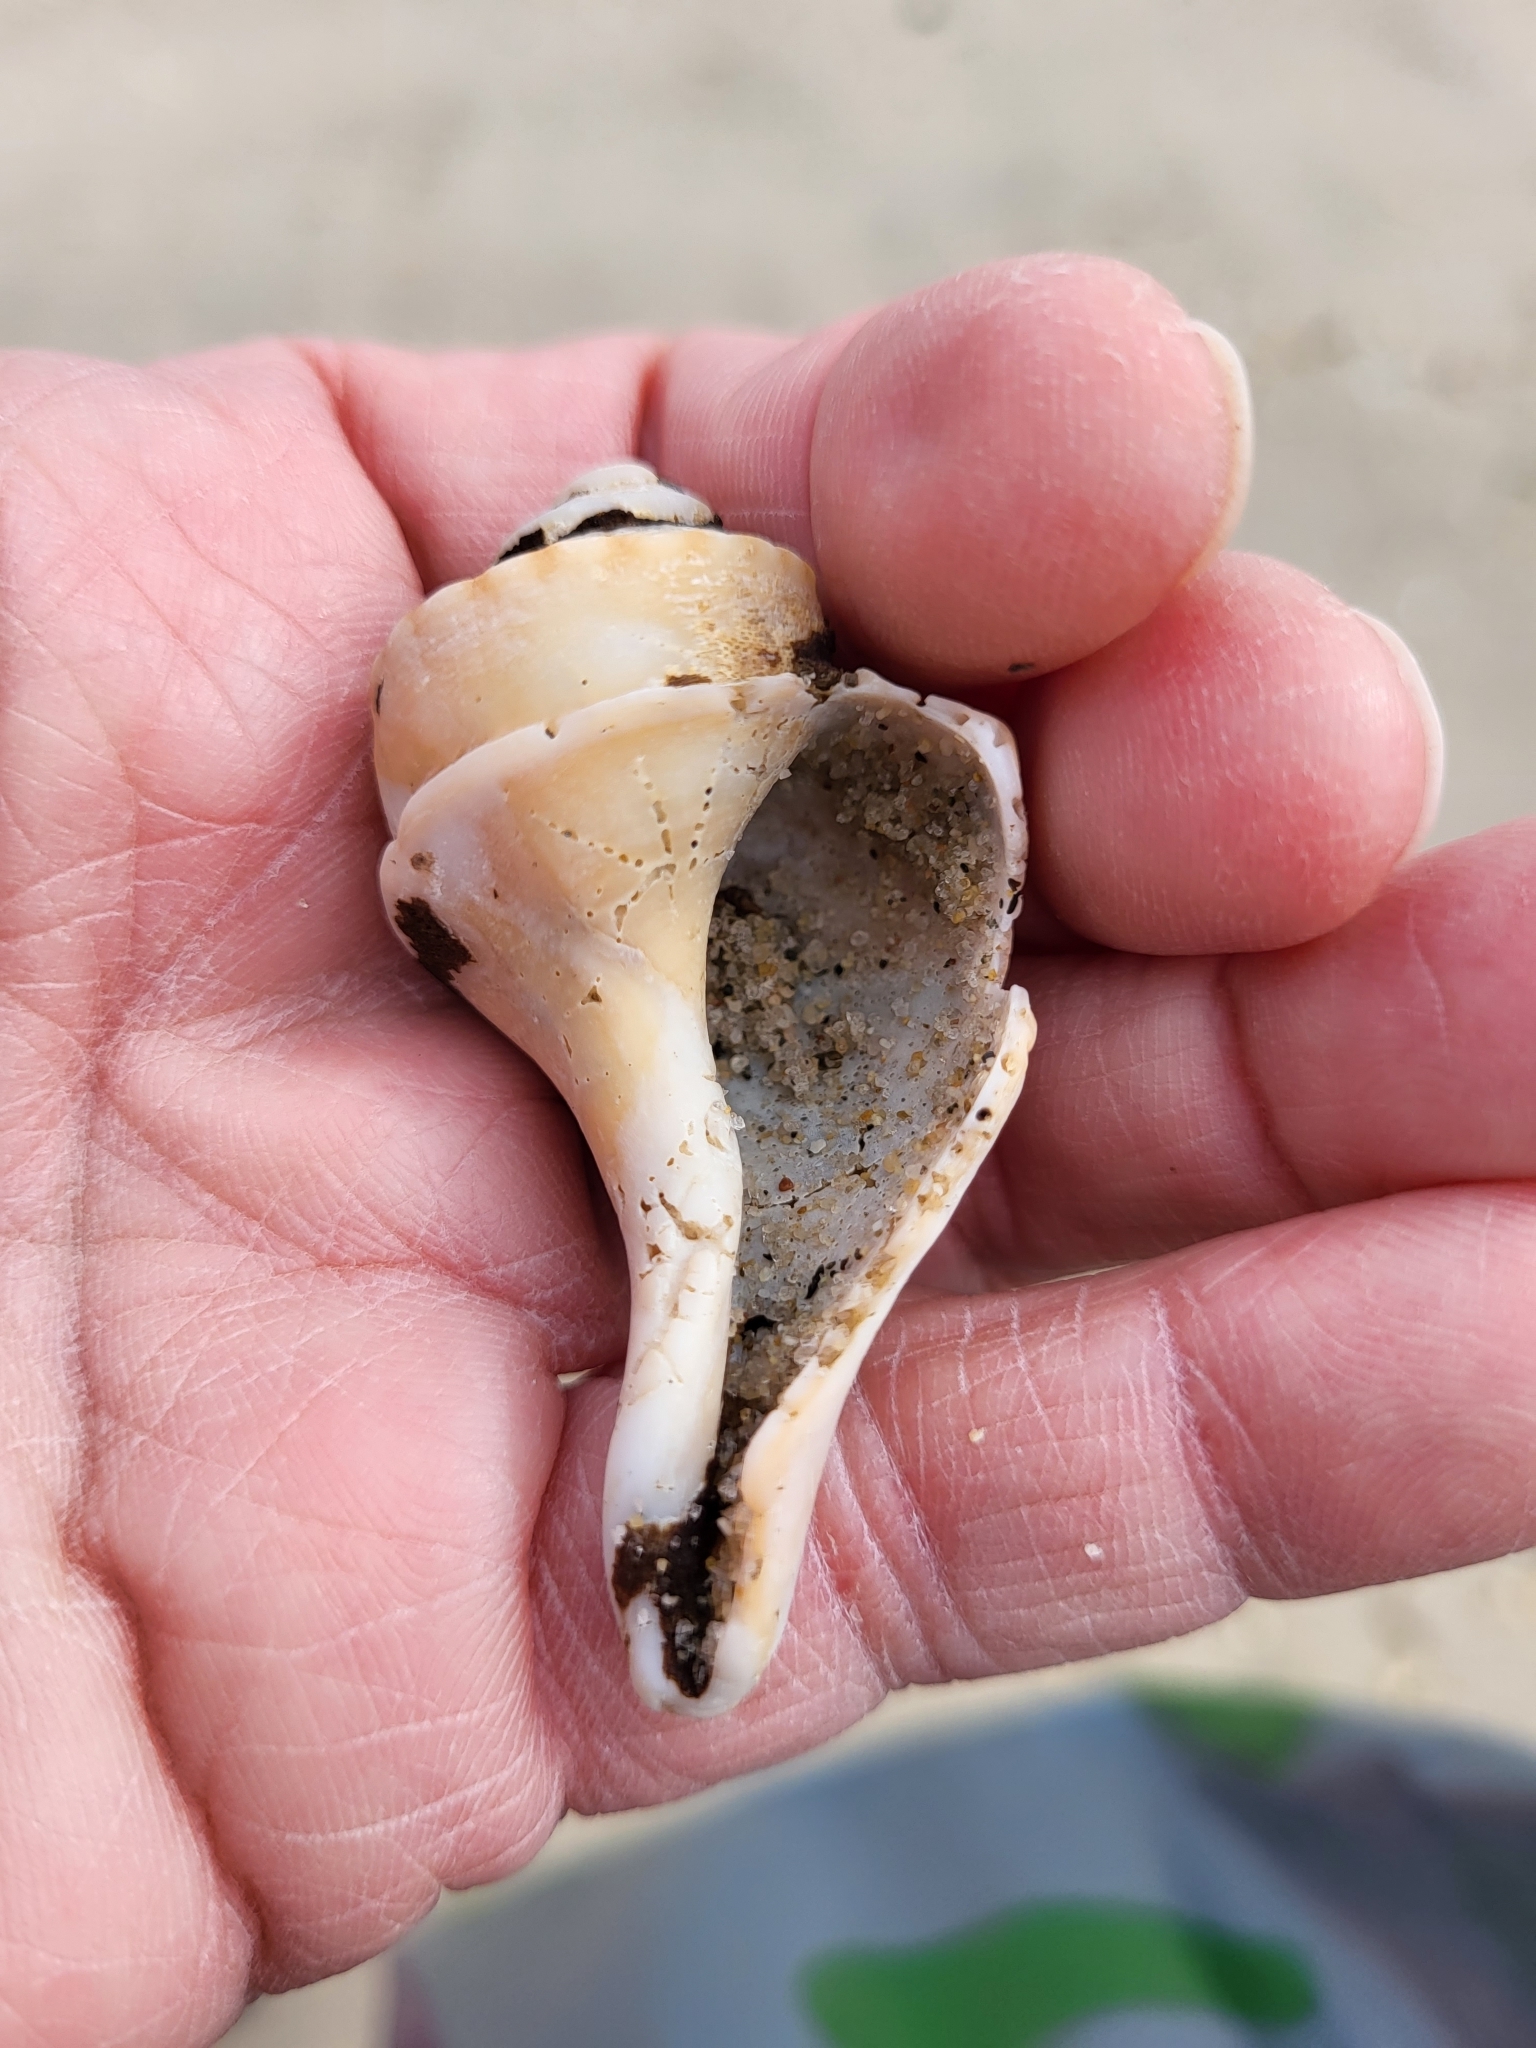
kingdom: Animalia
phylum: Mollusca
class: Gastropoda
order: Neogastropoda
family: Busyconidae
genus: Busycotypus
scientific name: Busycotypus canaliculatus
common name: Channeled whelk
